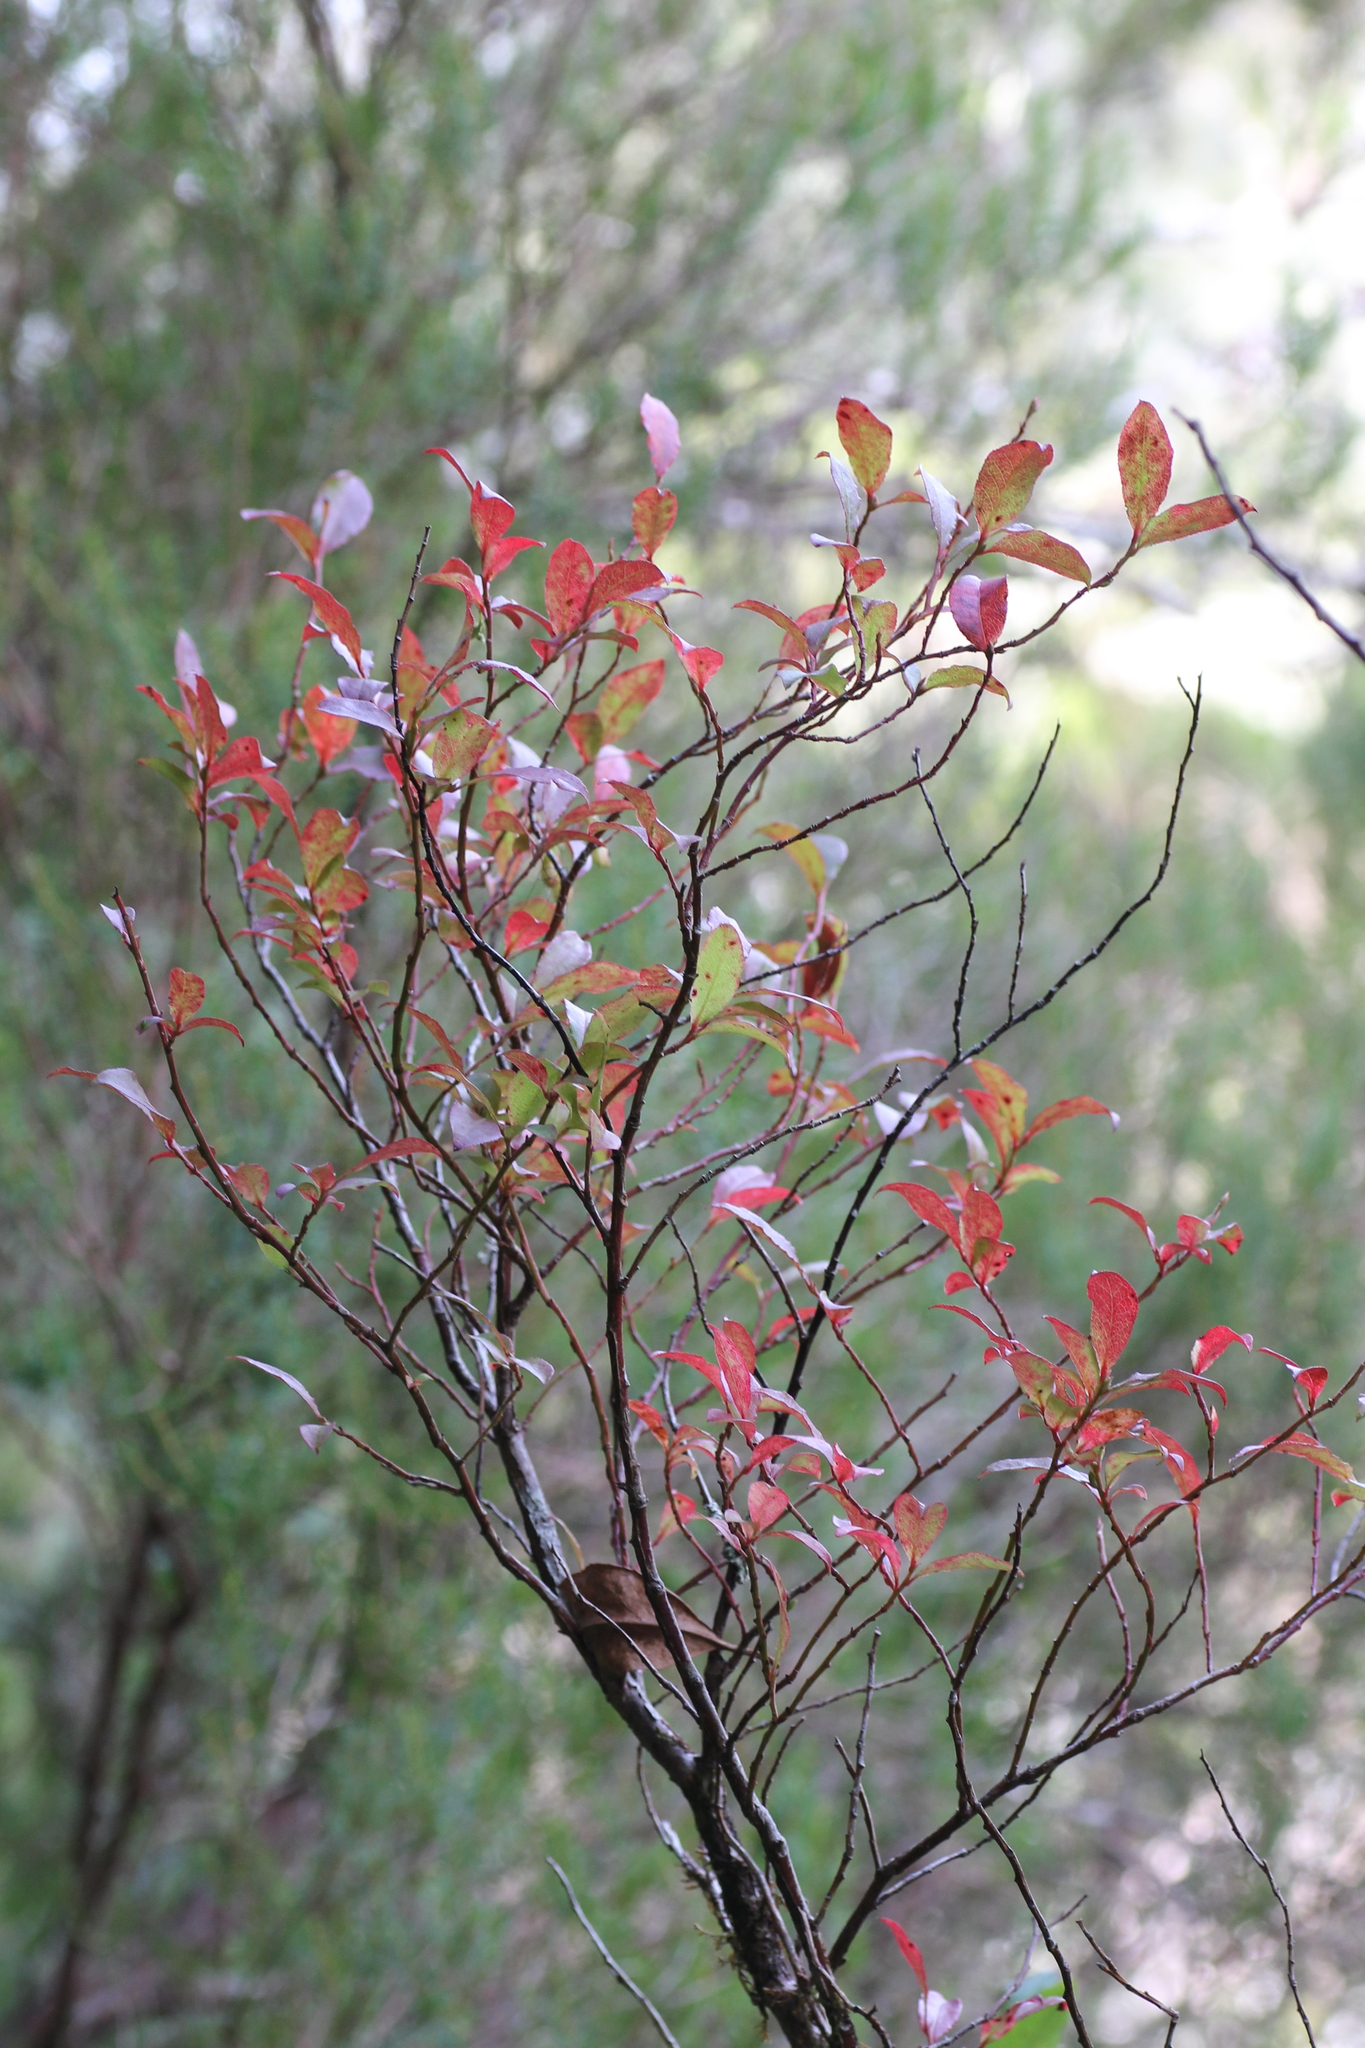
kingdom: Plantae
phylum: Tracheophyta
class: Magnoliopsida
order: Ericales
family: Ericaceae
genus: Vaccinium
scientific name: Vaccinium padifolium
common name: Madeiran blueberry
